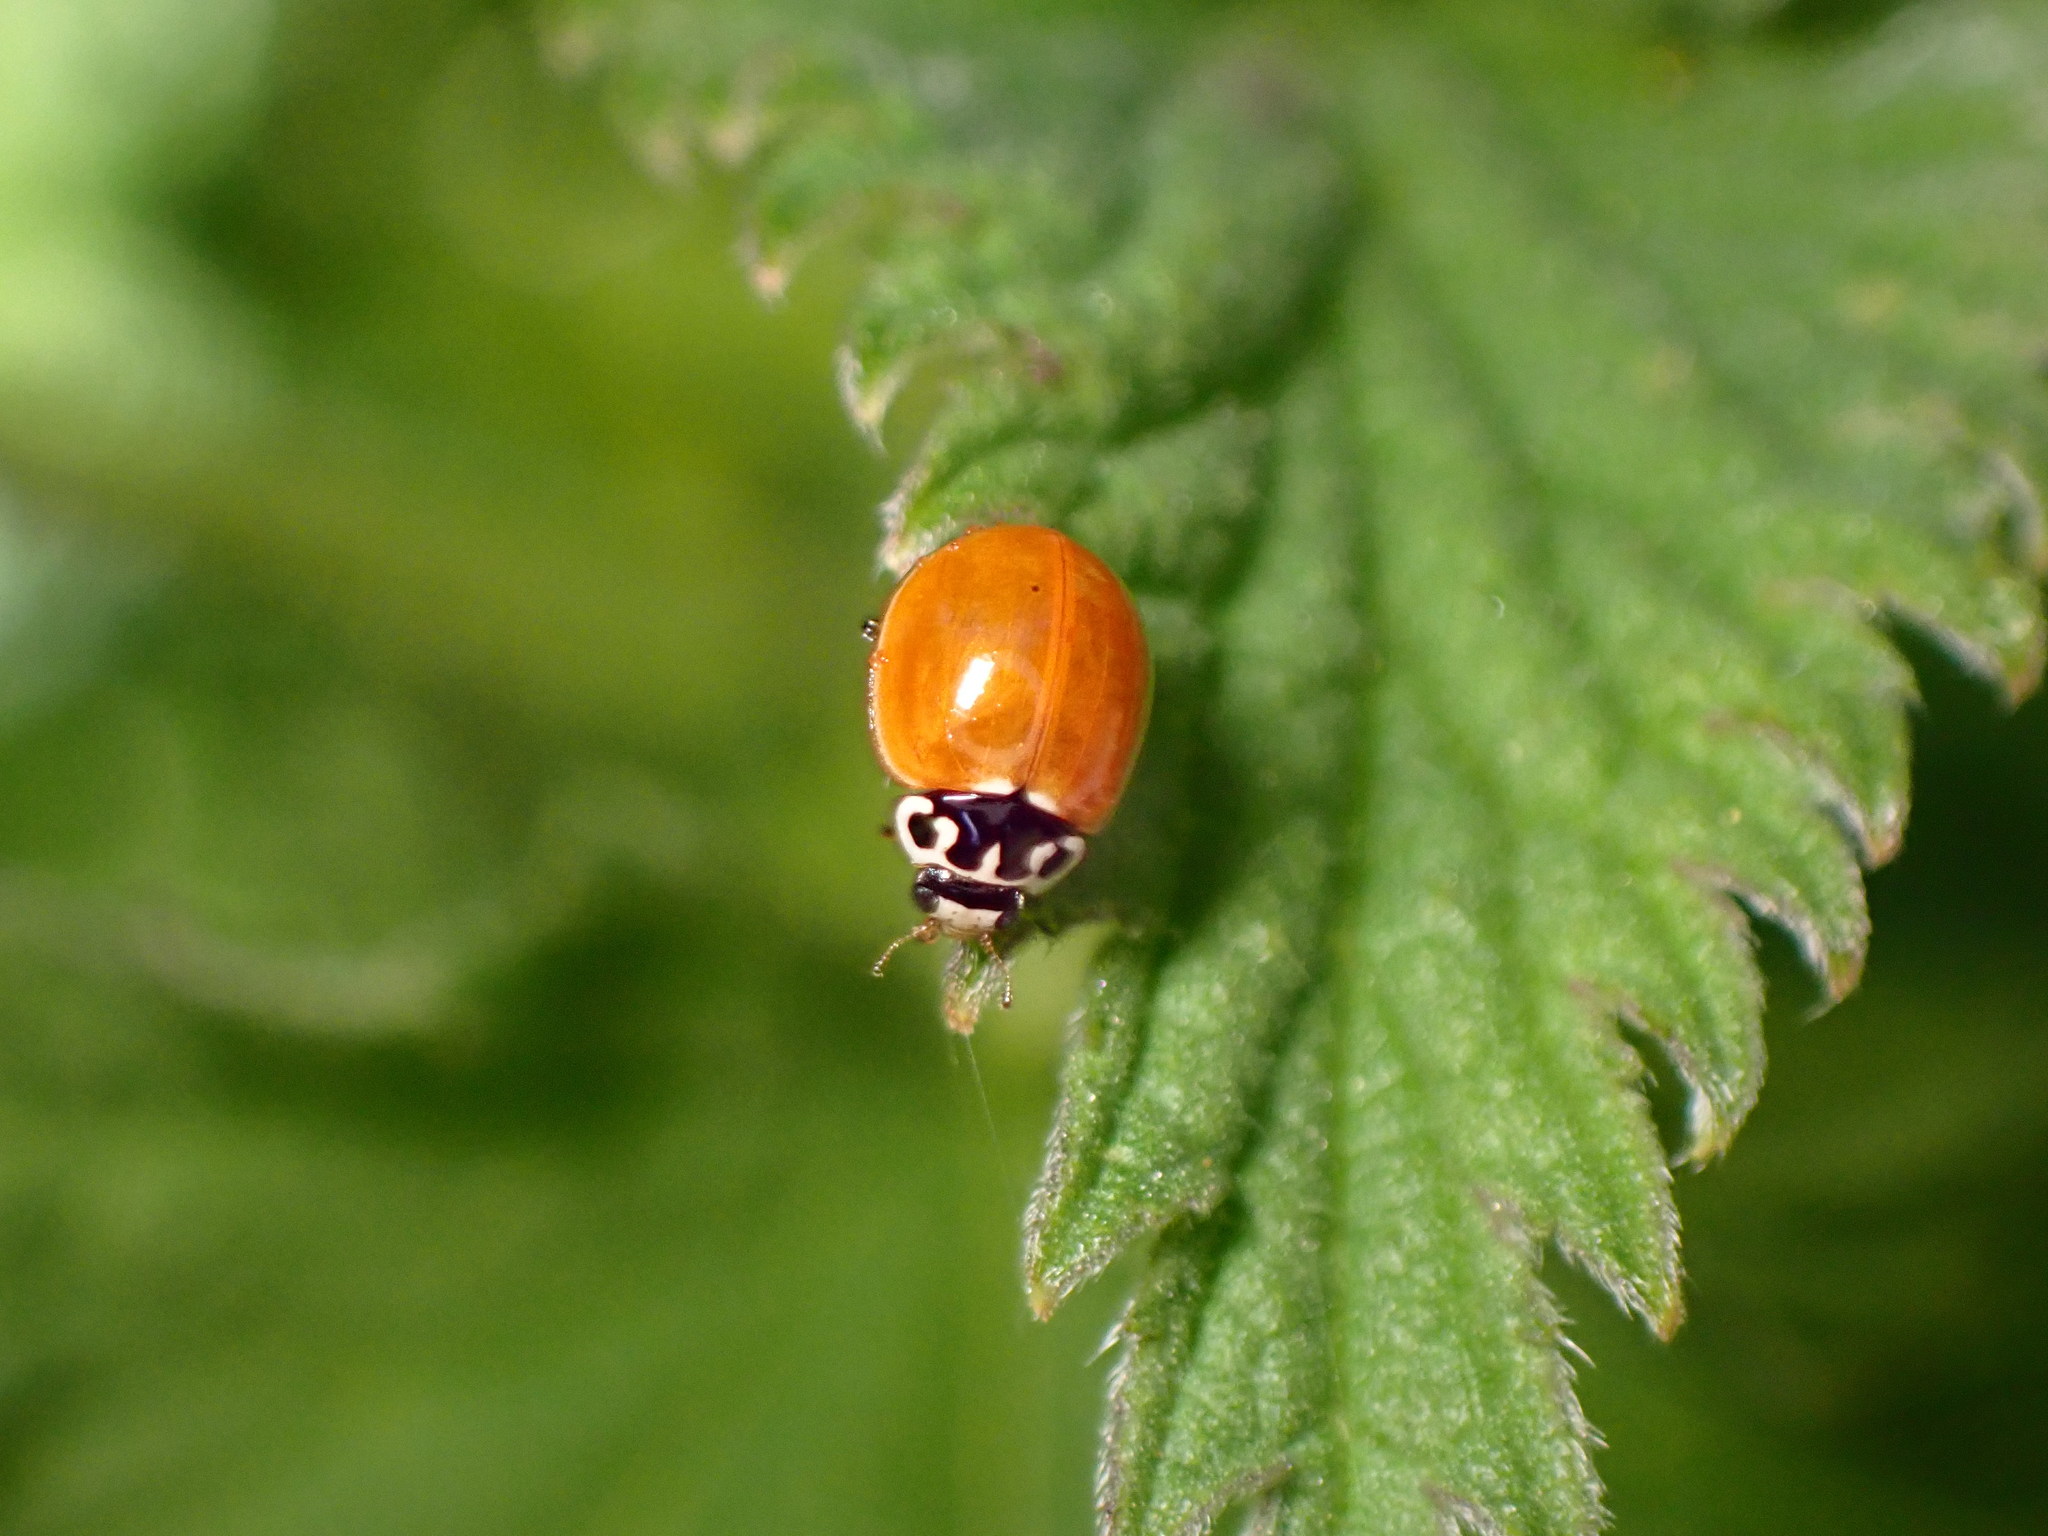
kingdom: Animalia
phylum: Arthropoda
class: Insecta
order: Coleoptera
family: Coccinellidae
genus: Cycloneda
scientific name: Cycloneda polita
